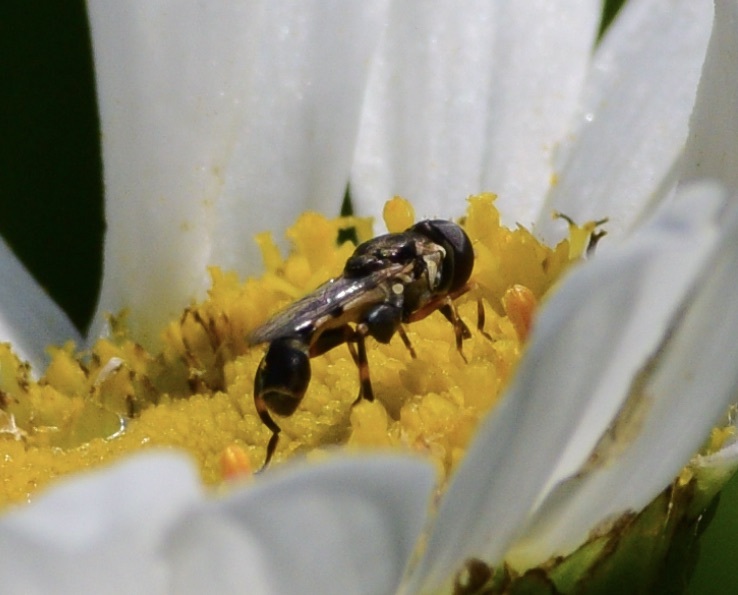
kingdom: Animalia
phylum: Arthropoda
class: Insecta
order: Diptera
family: Syrphidae
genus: Syritta
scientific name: Syritta pipiens
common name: Hover fly
